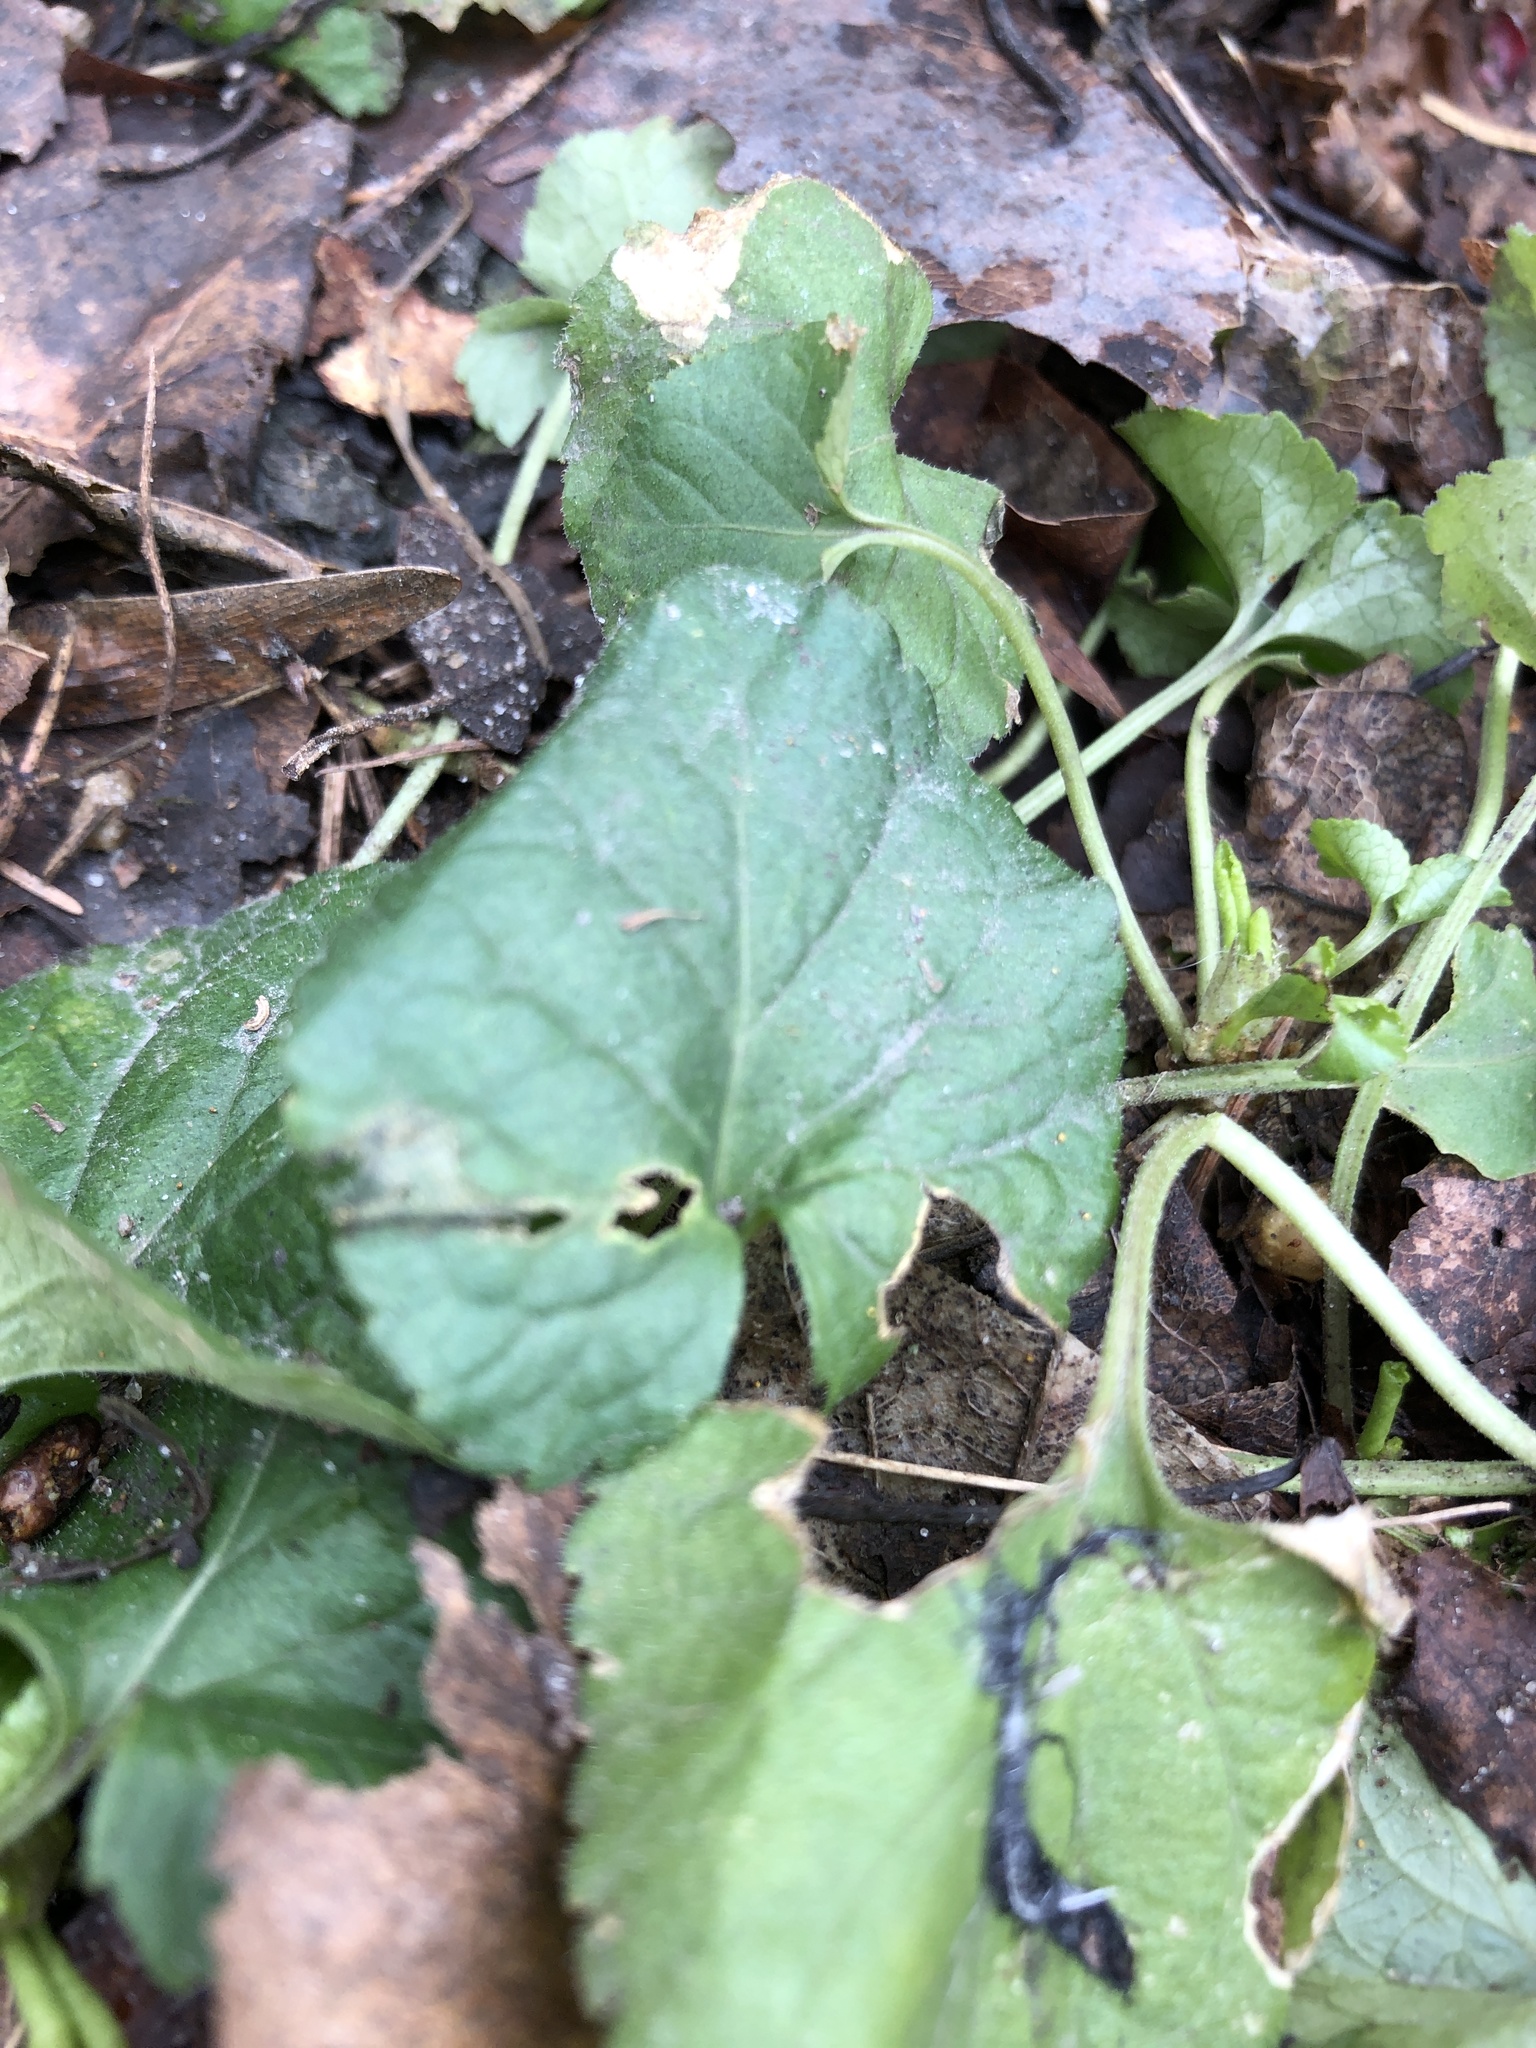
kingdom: Plantae
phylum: Tracheophyta
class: Magnoliopsida
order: Malpighiales
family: Violaceae
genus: Viola
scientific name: Viola odorata
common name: Sweet violet
